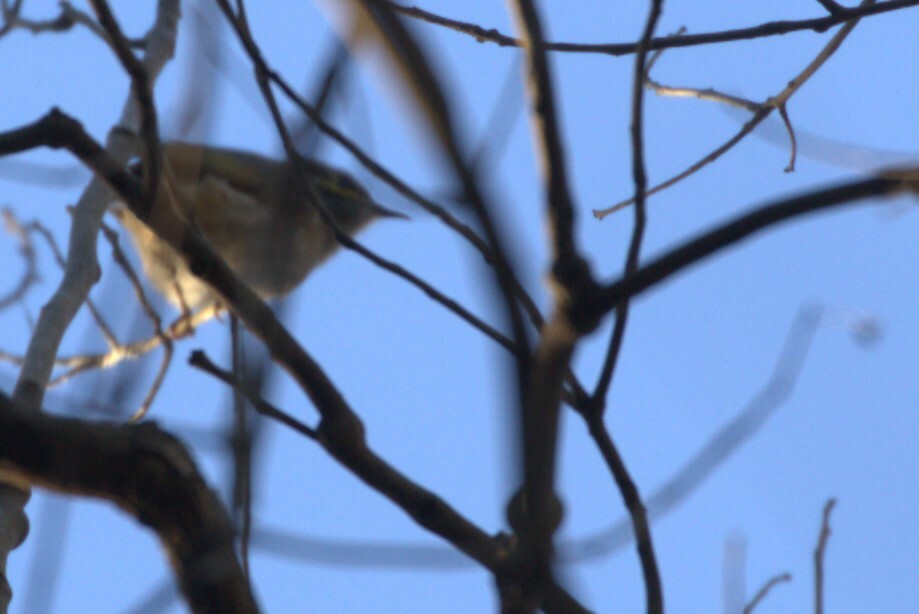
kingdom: Animalia
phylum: Chordata
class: Aves
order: Passeriformes
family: Meliphagidae
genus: Caligavis
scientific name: Caligavis chrysops
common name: Yellow-faced honeyeater
